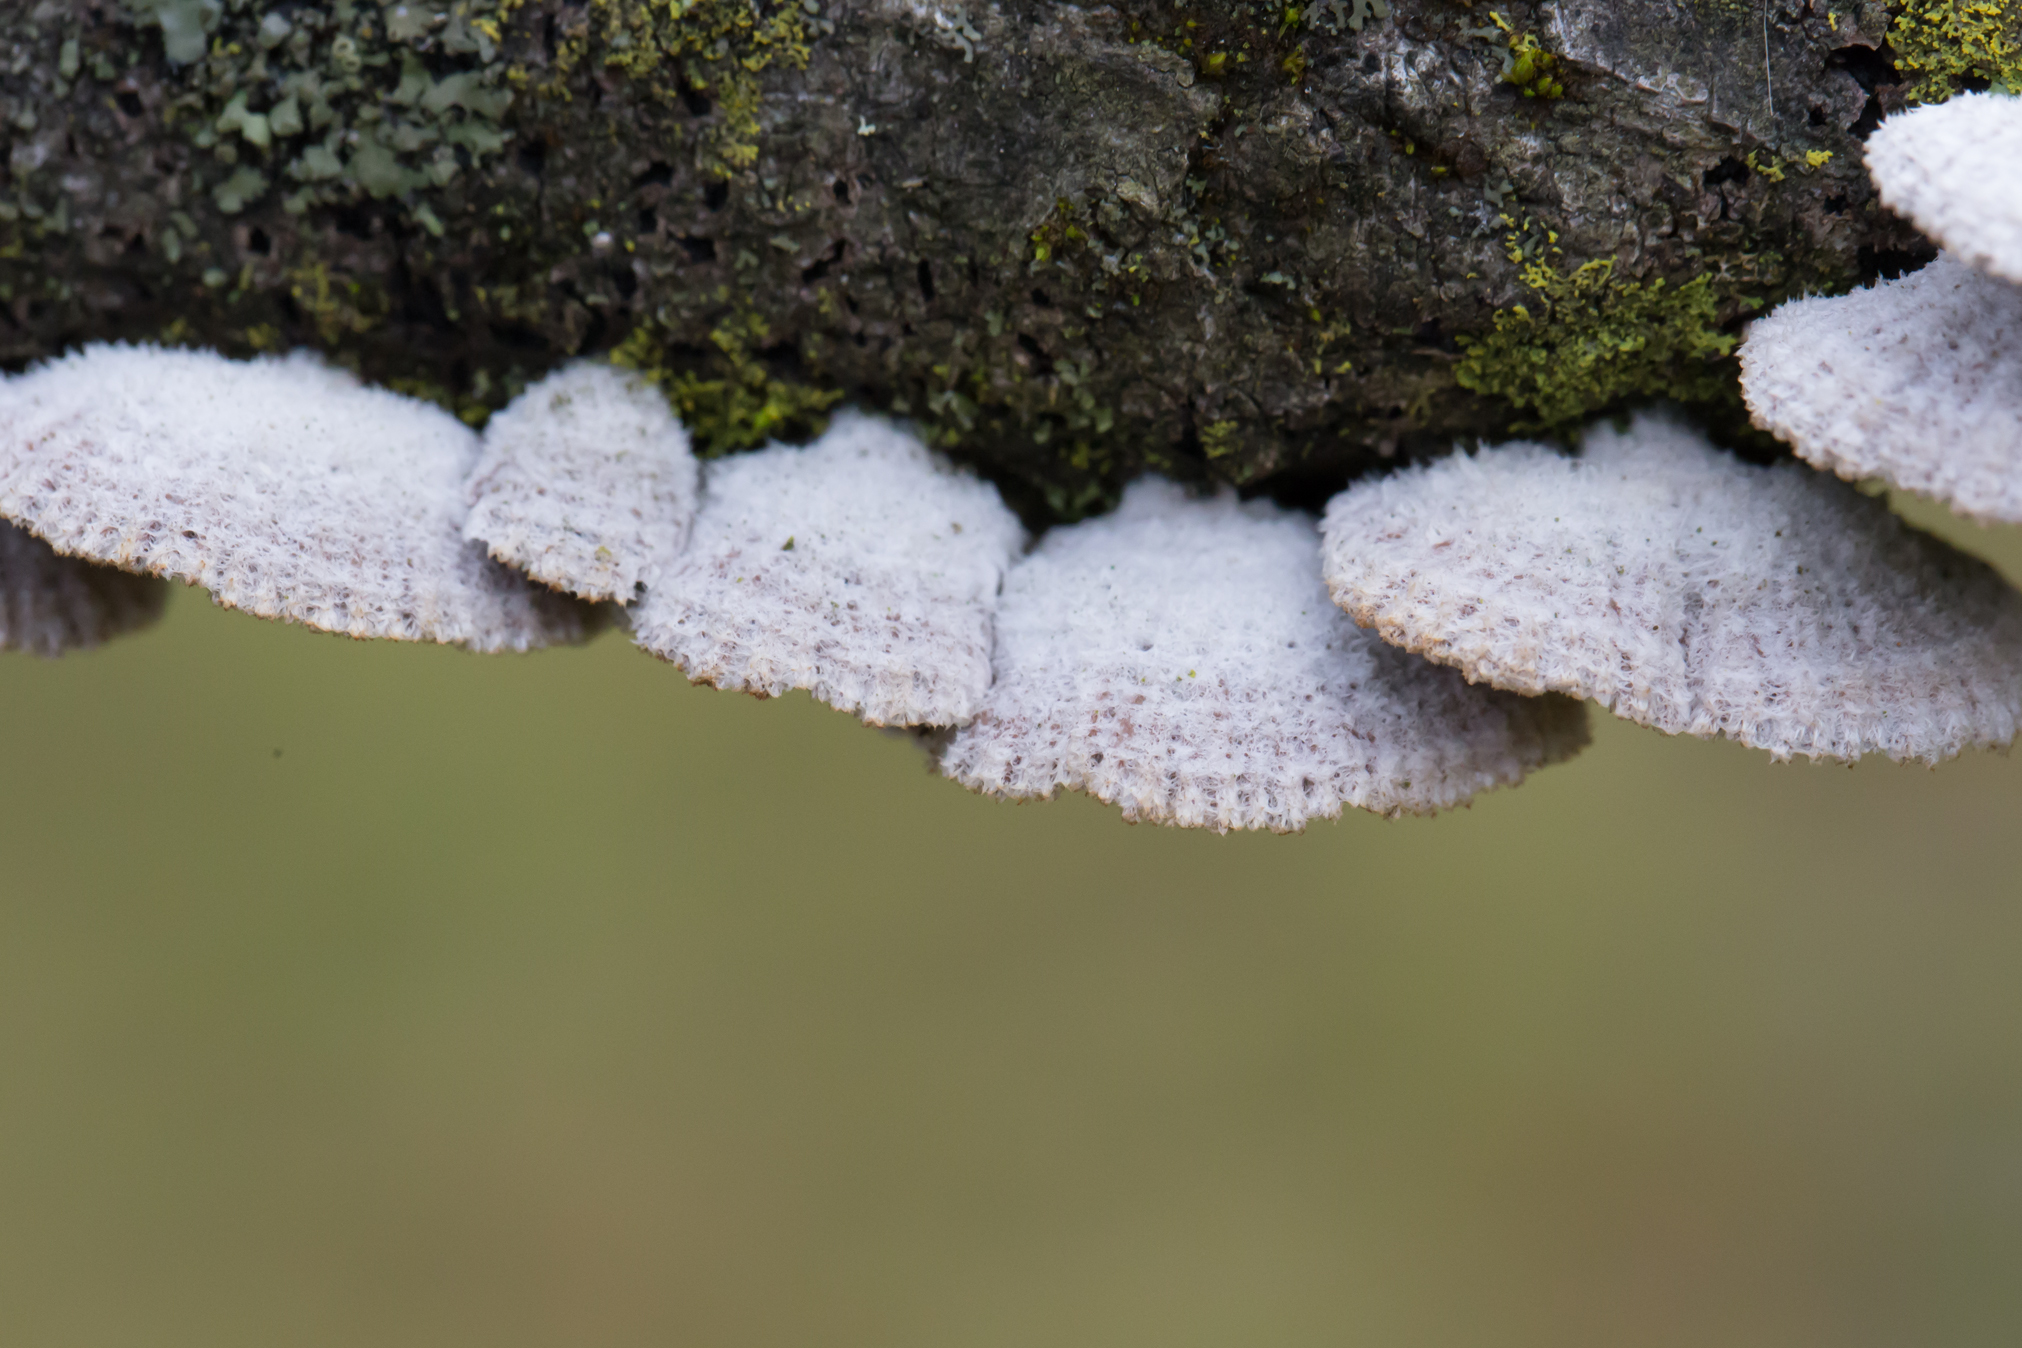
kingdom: Fungi
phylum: Basidiomycota
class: Agaricomycetes
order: Agaricales
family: Schizophyllaceae
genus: Schizophyllum
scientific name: Schizophyllum commune
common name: Common porecrust
